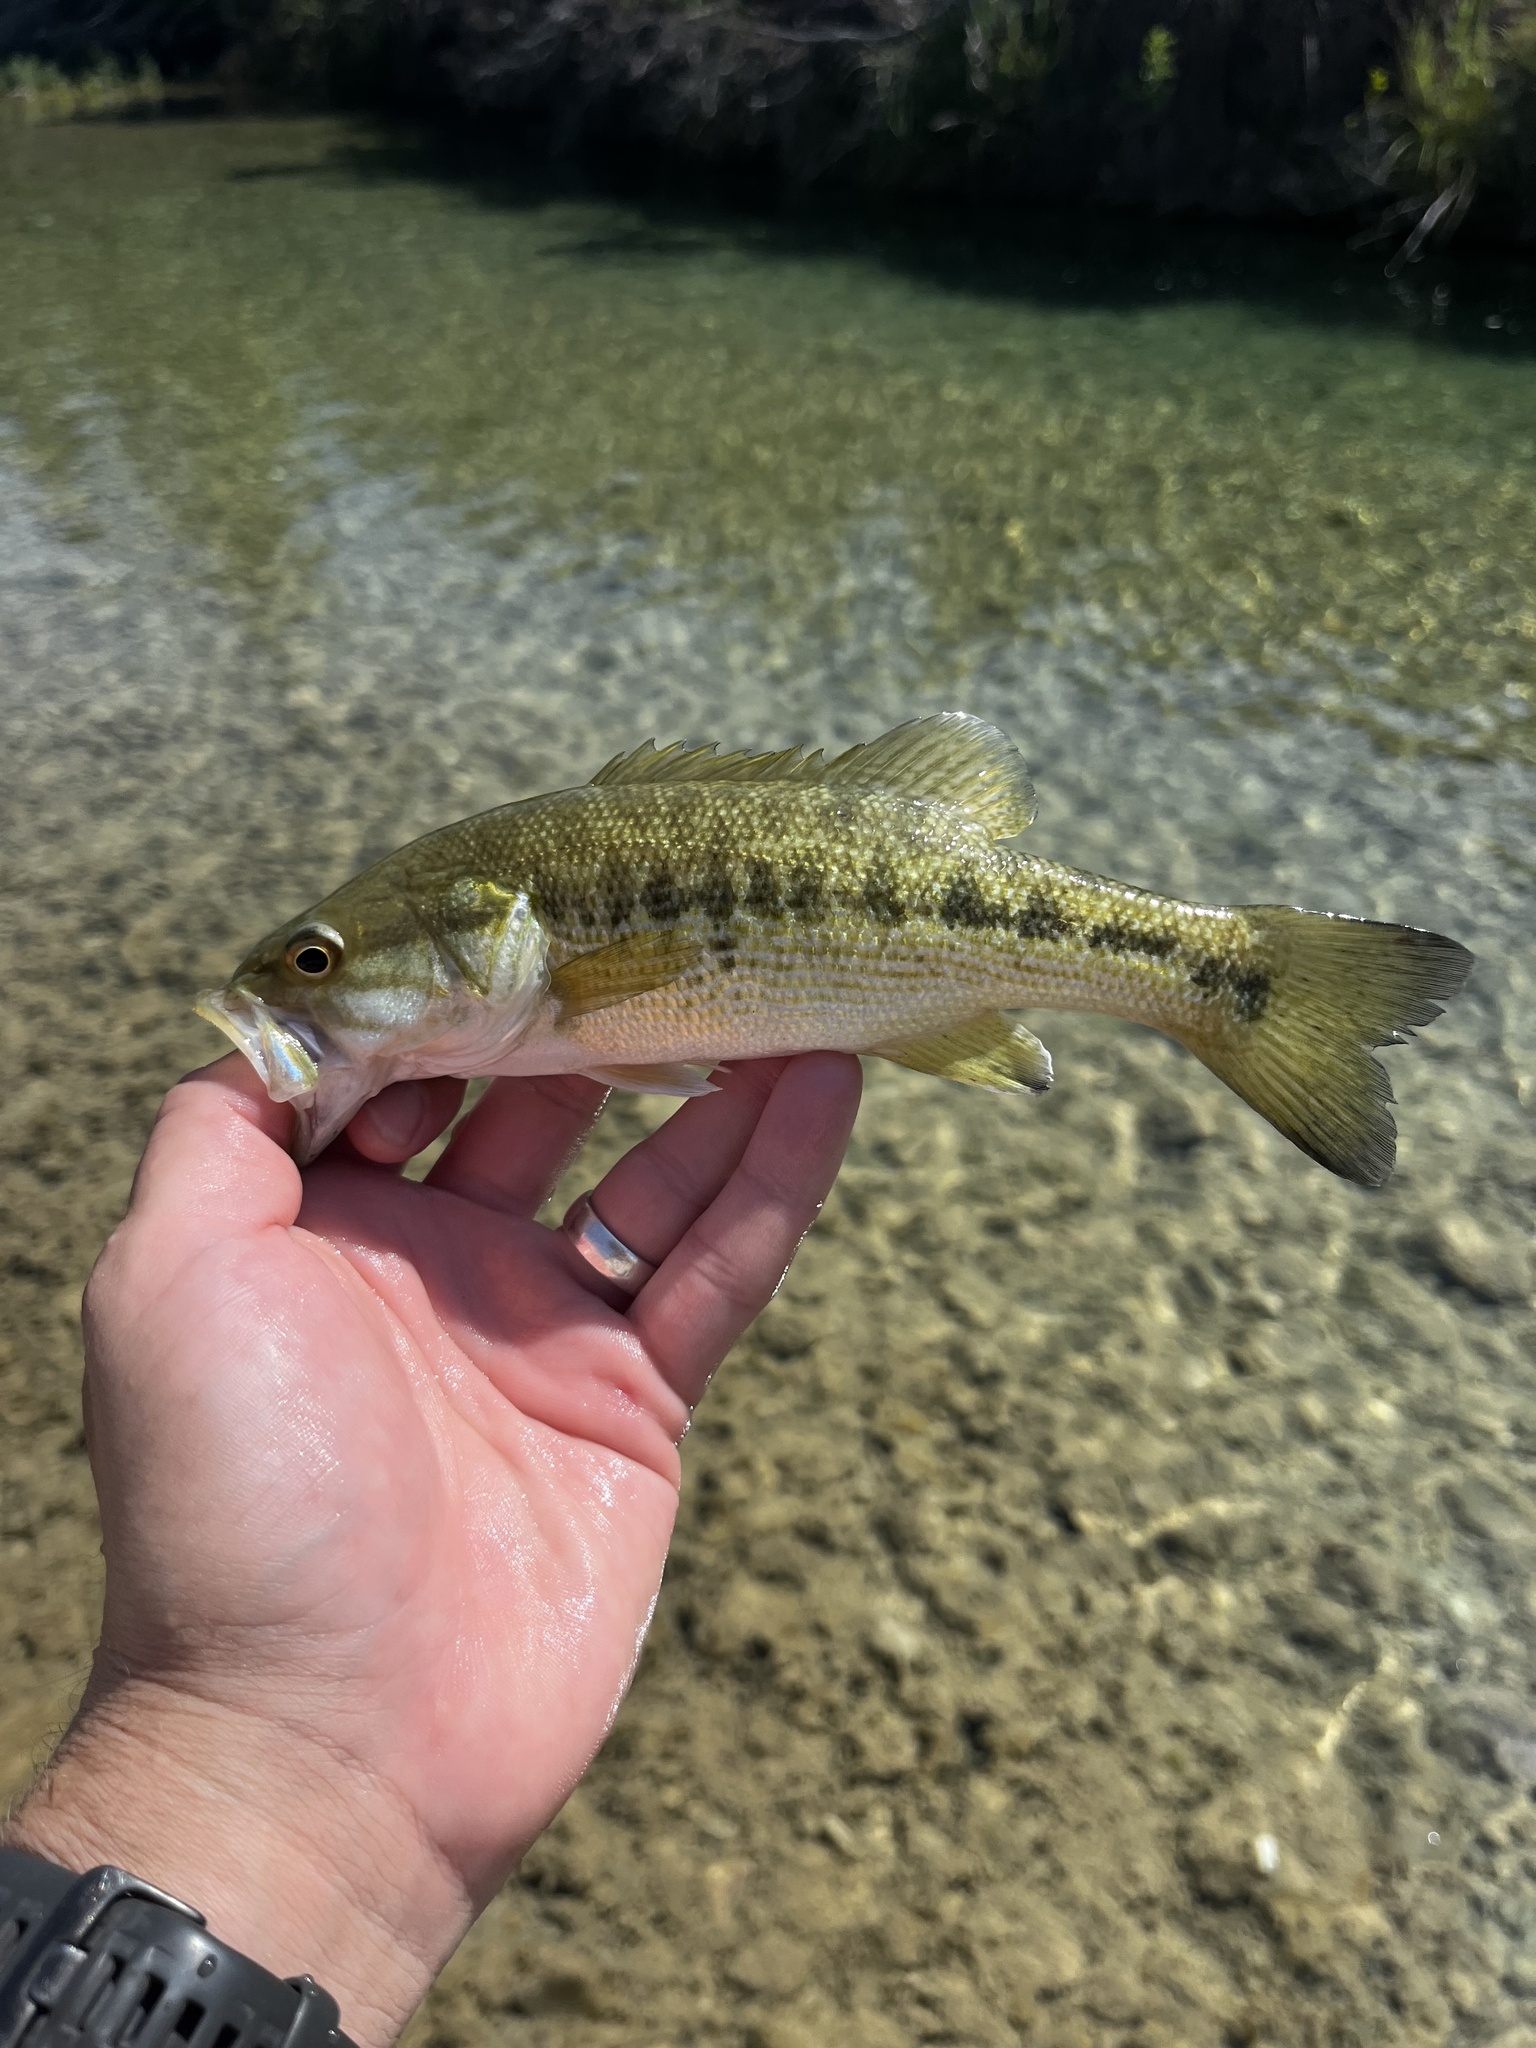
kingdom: Animalia
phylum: Chordata
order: Perciformes
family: Centrarchidae
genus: Micropterus
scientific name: Micropterus treculii
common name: Guadalupe bass
